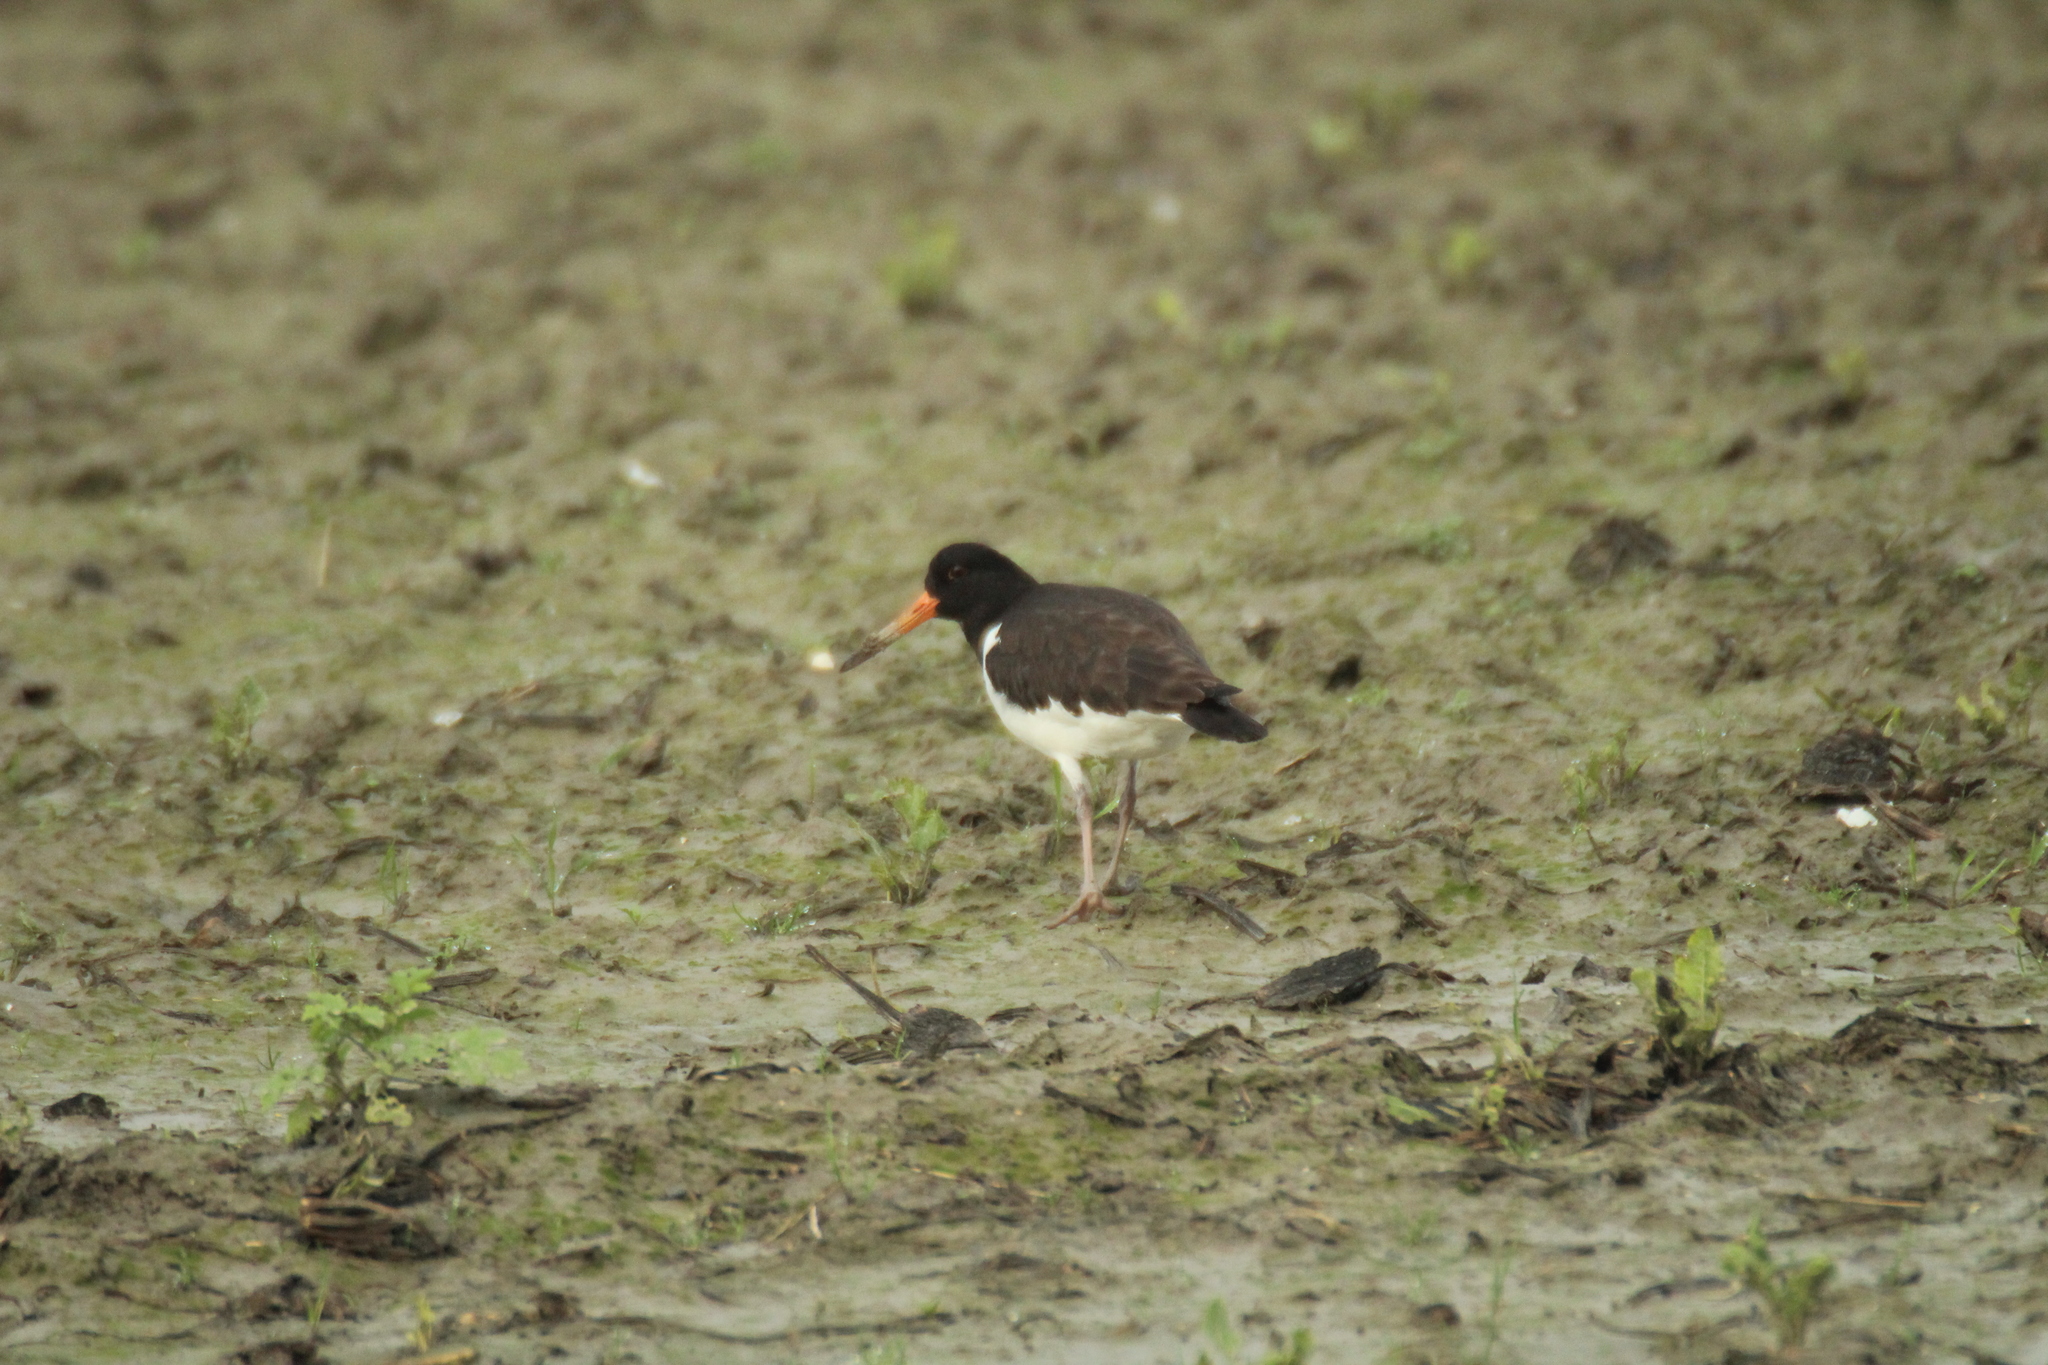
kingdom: Animalia
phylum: Chordata
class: Aves
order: Charadriiformes
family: Haematopodidae
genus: Haematopus
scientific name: Haematopus ostralegus
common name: Eurasian oystercatcher
